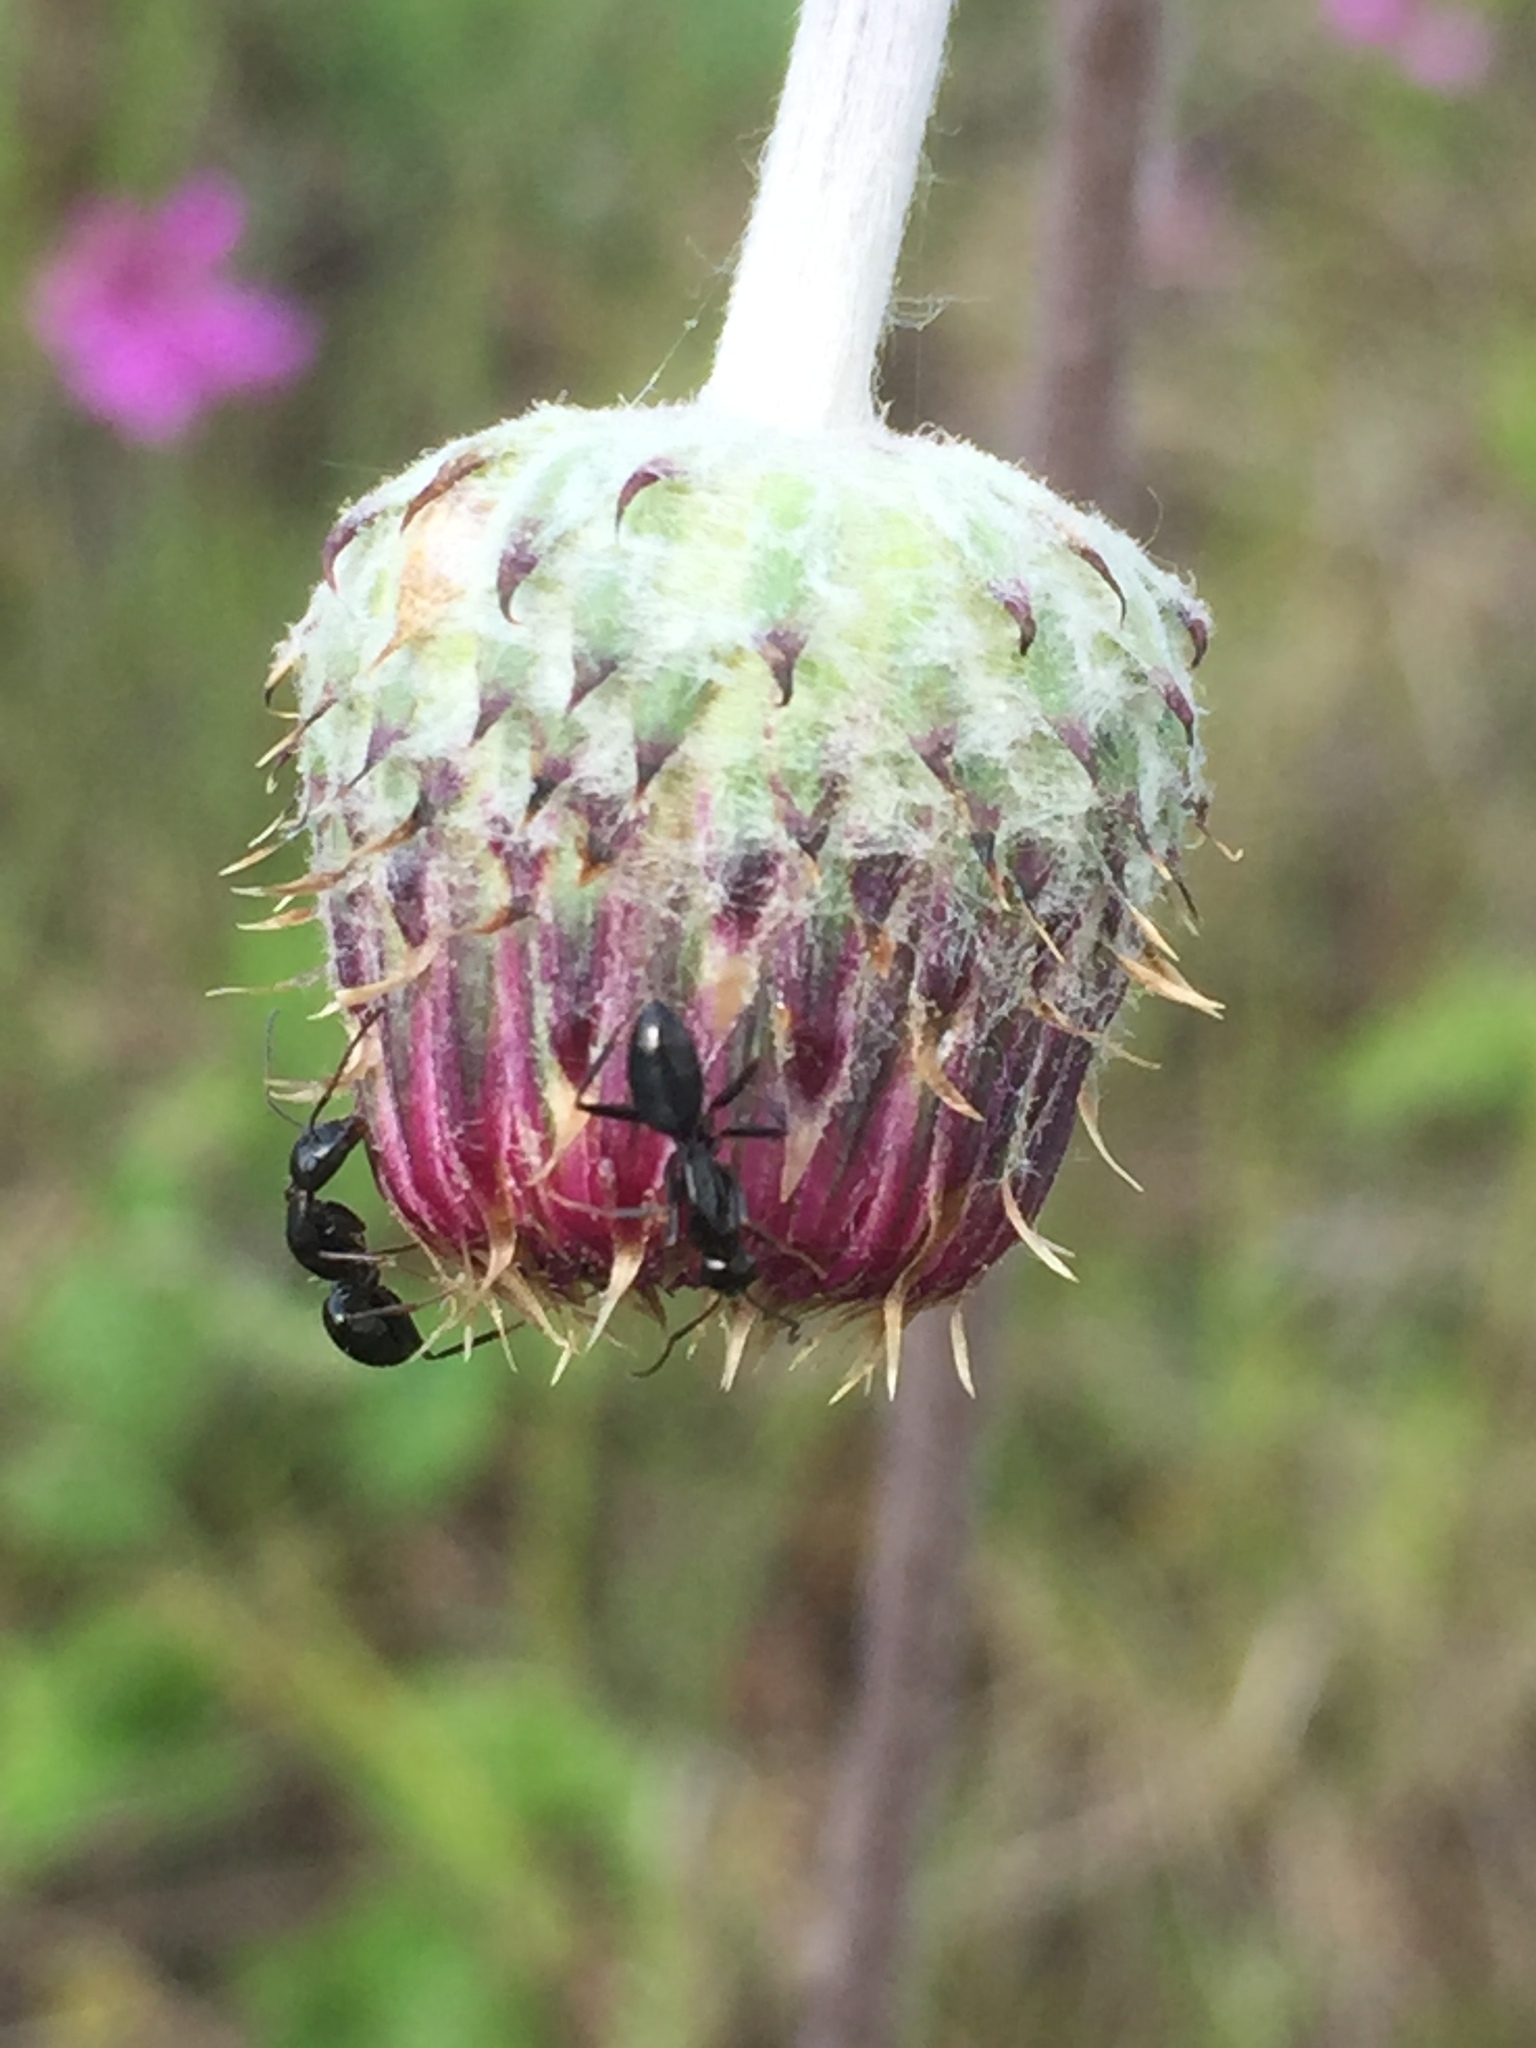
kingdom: Plantae
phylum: Tracheophyta
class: Magnoliopsida
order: Asterales
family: Asteraceae
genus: Jurinea
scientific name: Jurinea arachnoidea
